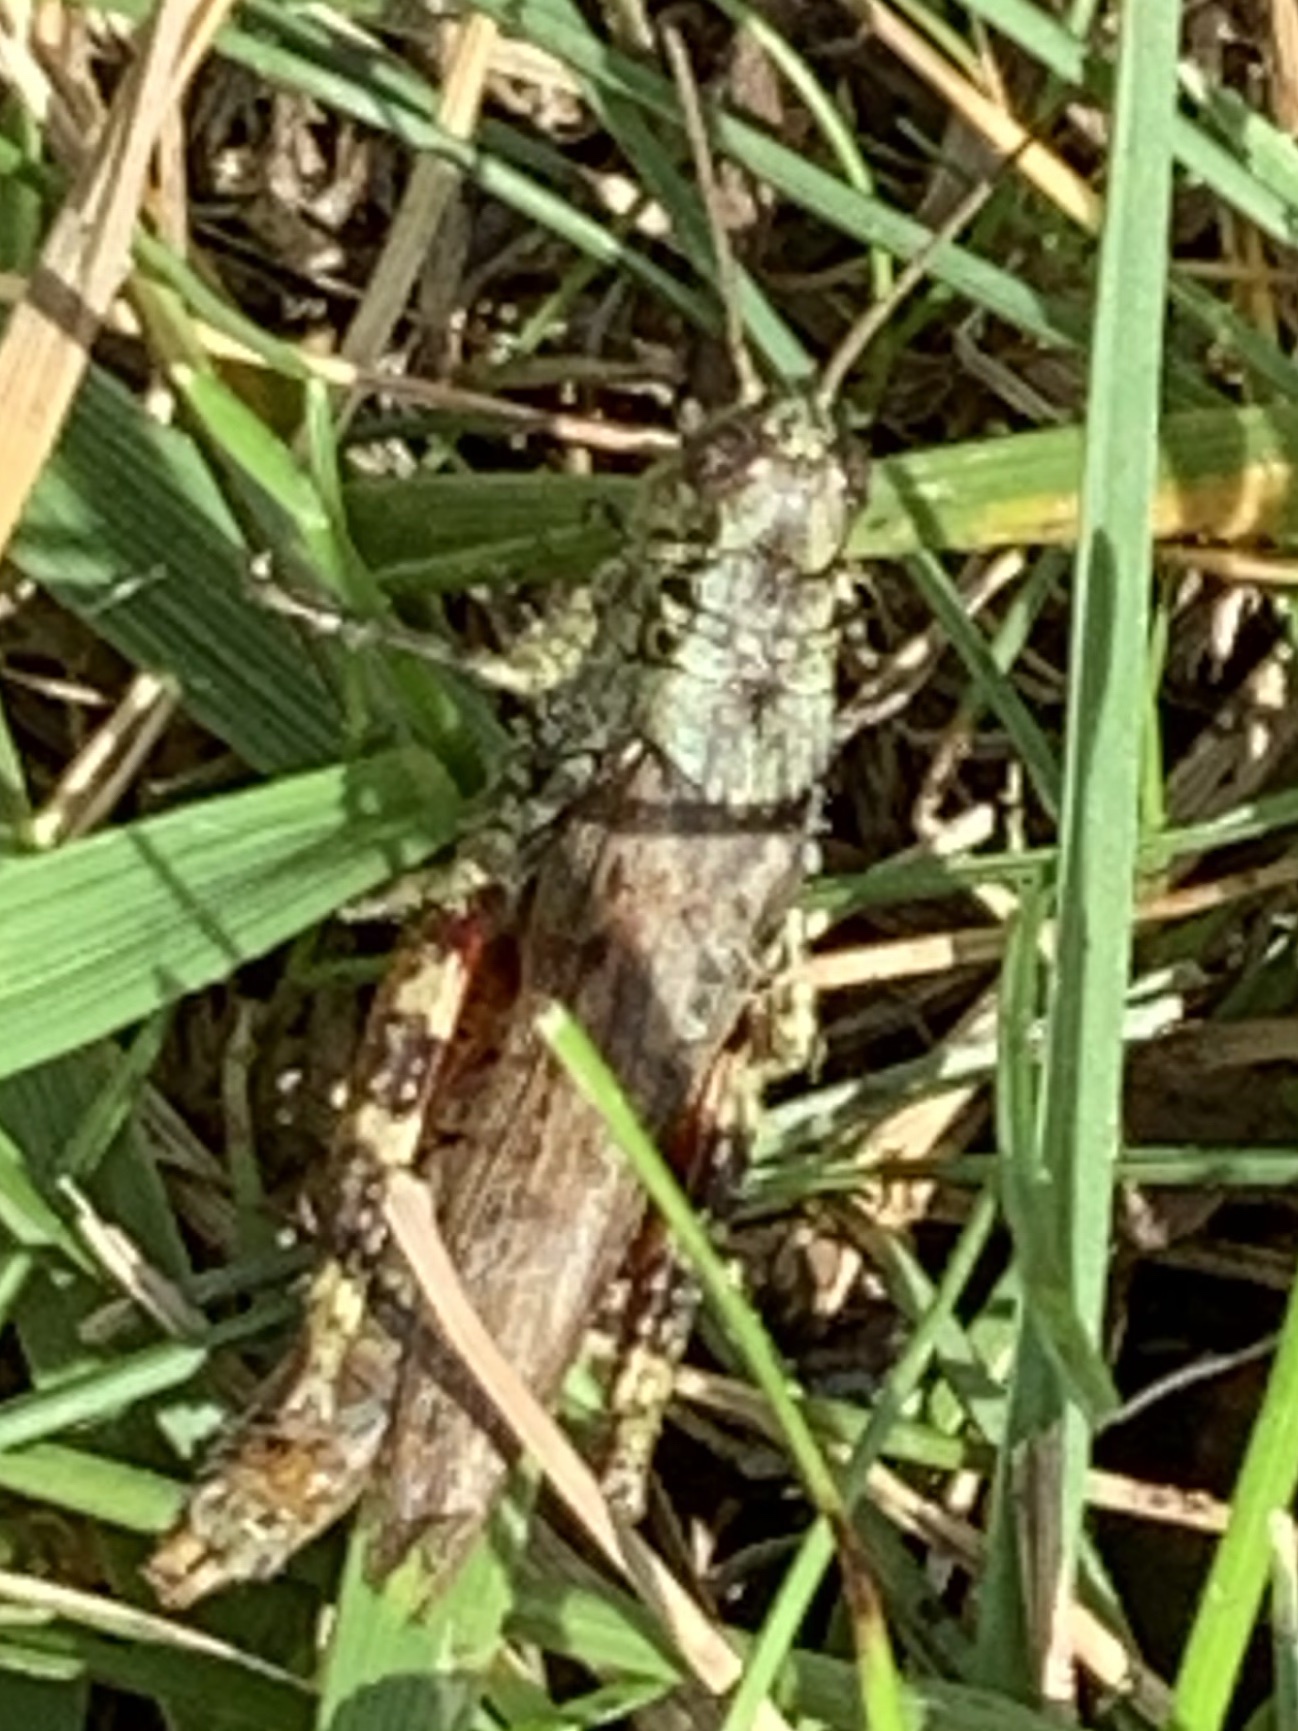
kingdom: Animalia
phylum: Arthropoda
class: Insecta
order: Orthoptera
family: Acrididae
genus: Melanoplus
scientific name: Melanoplus punctulatus
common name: Pine-tree spur-throat grasshopper
